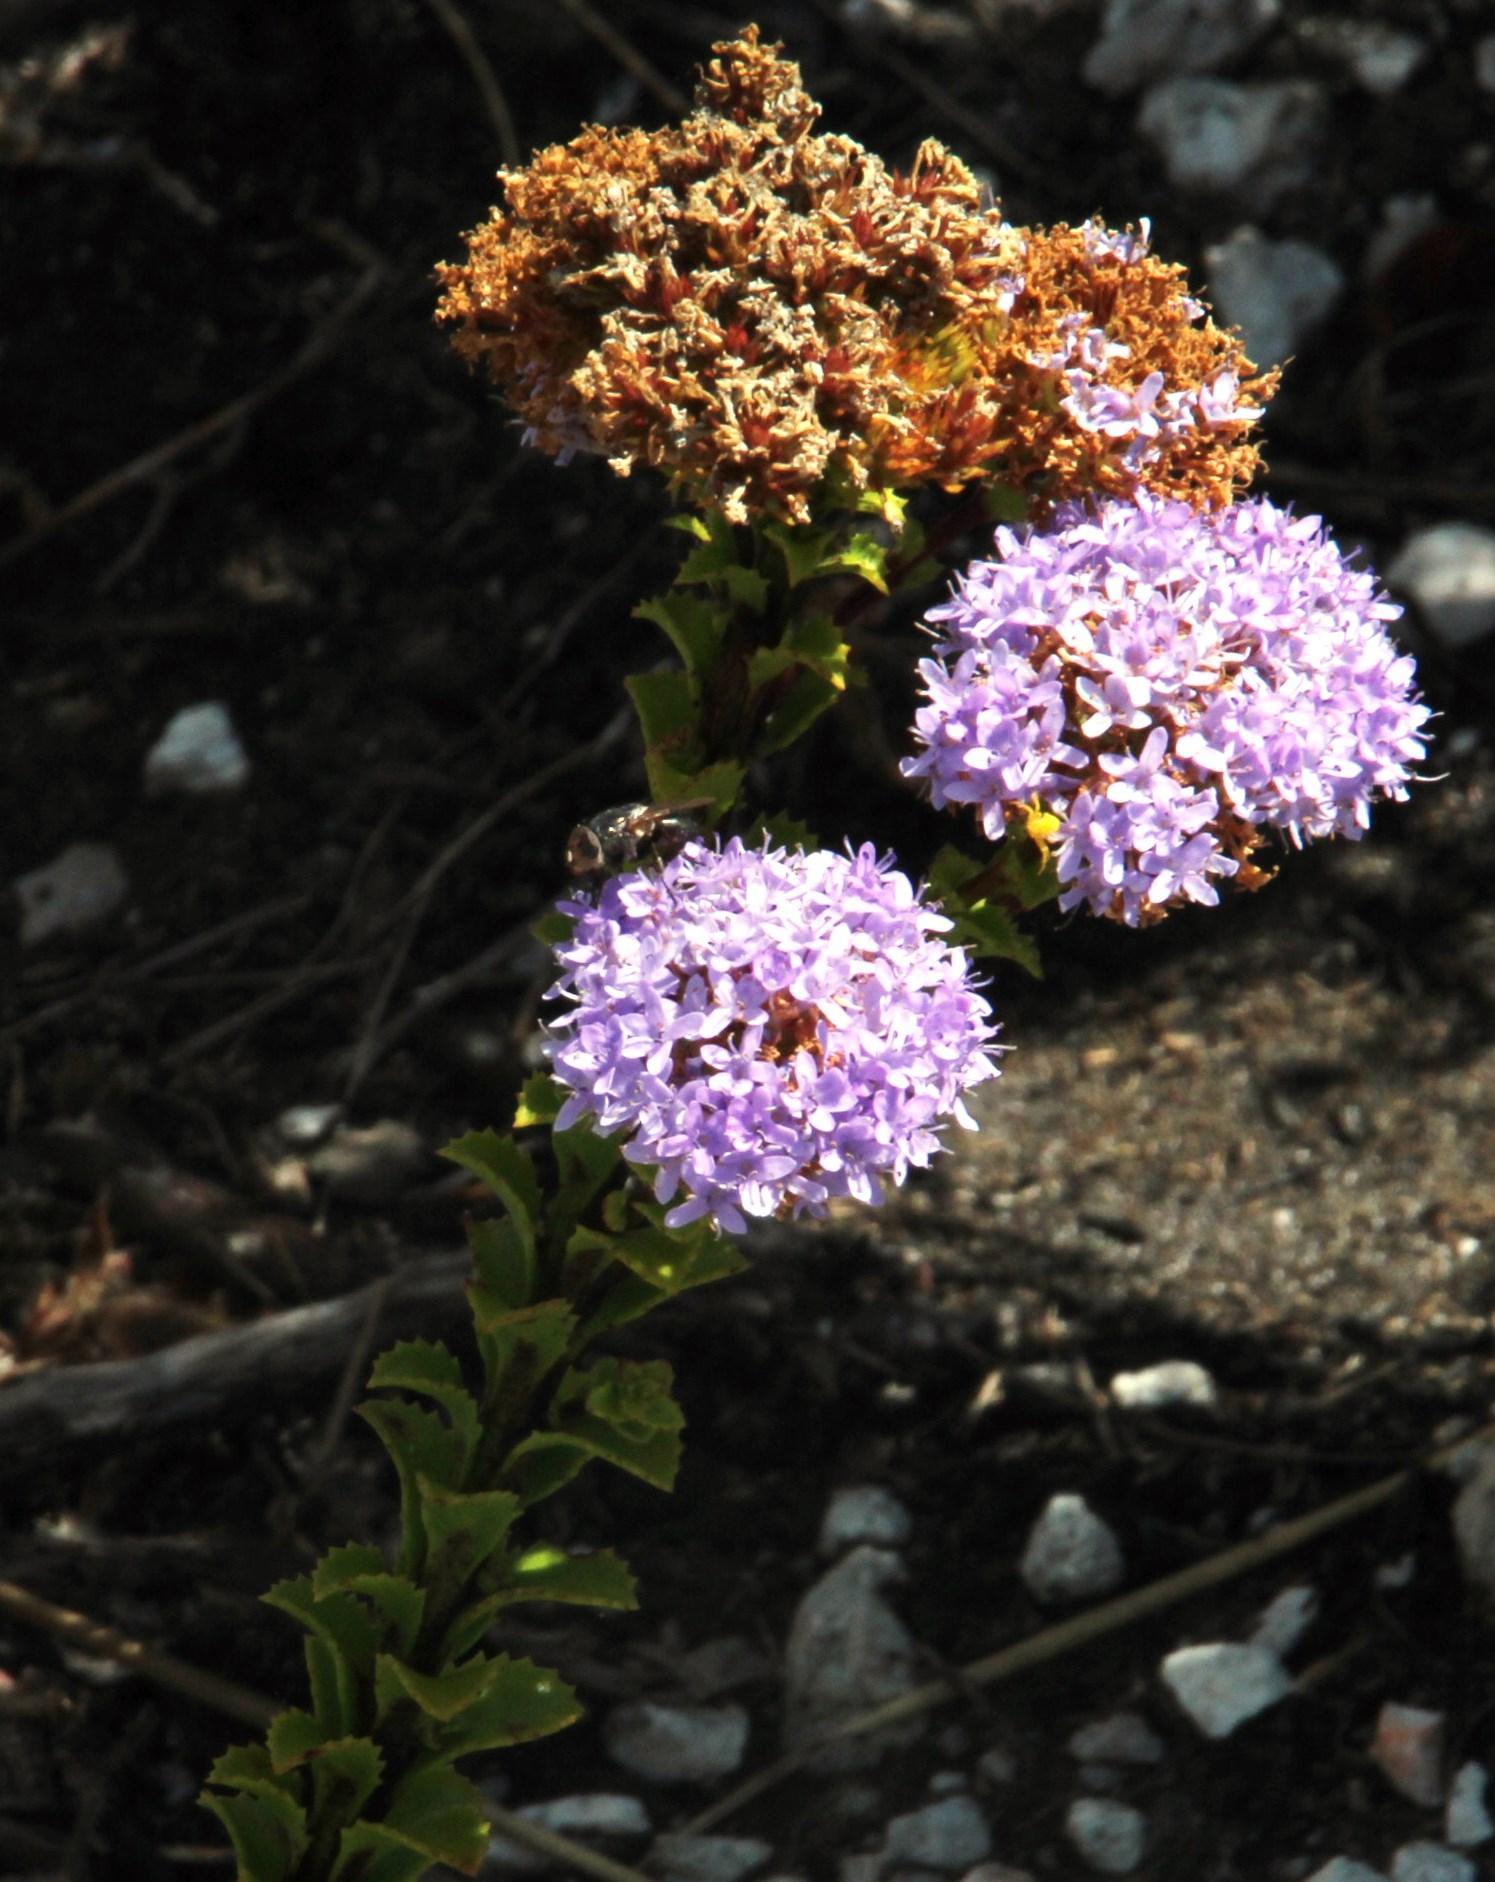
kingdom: Plantae
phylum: Tracheophyta
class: Magnoliopsida
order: Lamiales
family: Scrophulariaceae
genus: Pseudoselago
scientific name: Pseudoselago serrata
